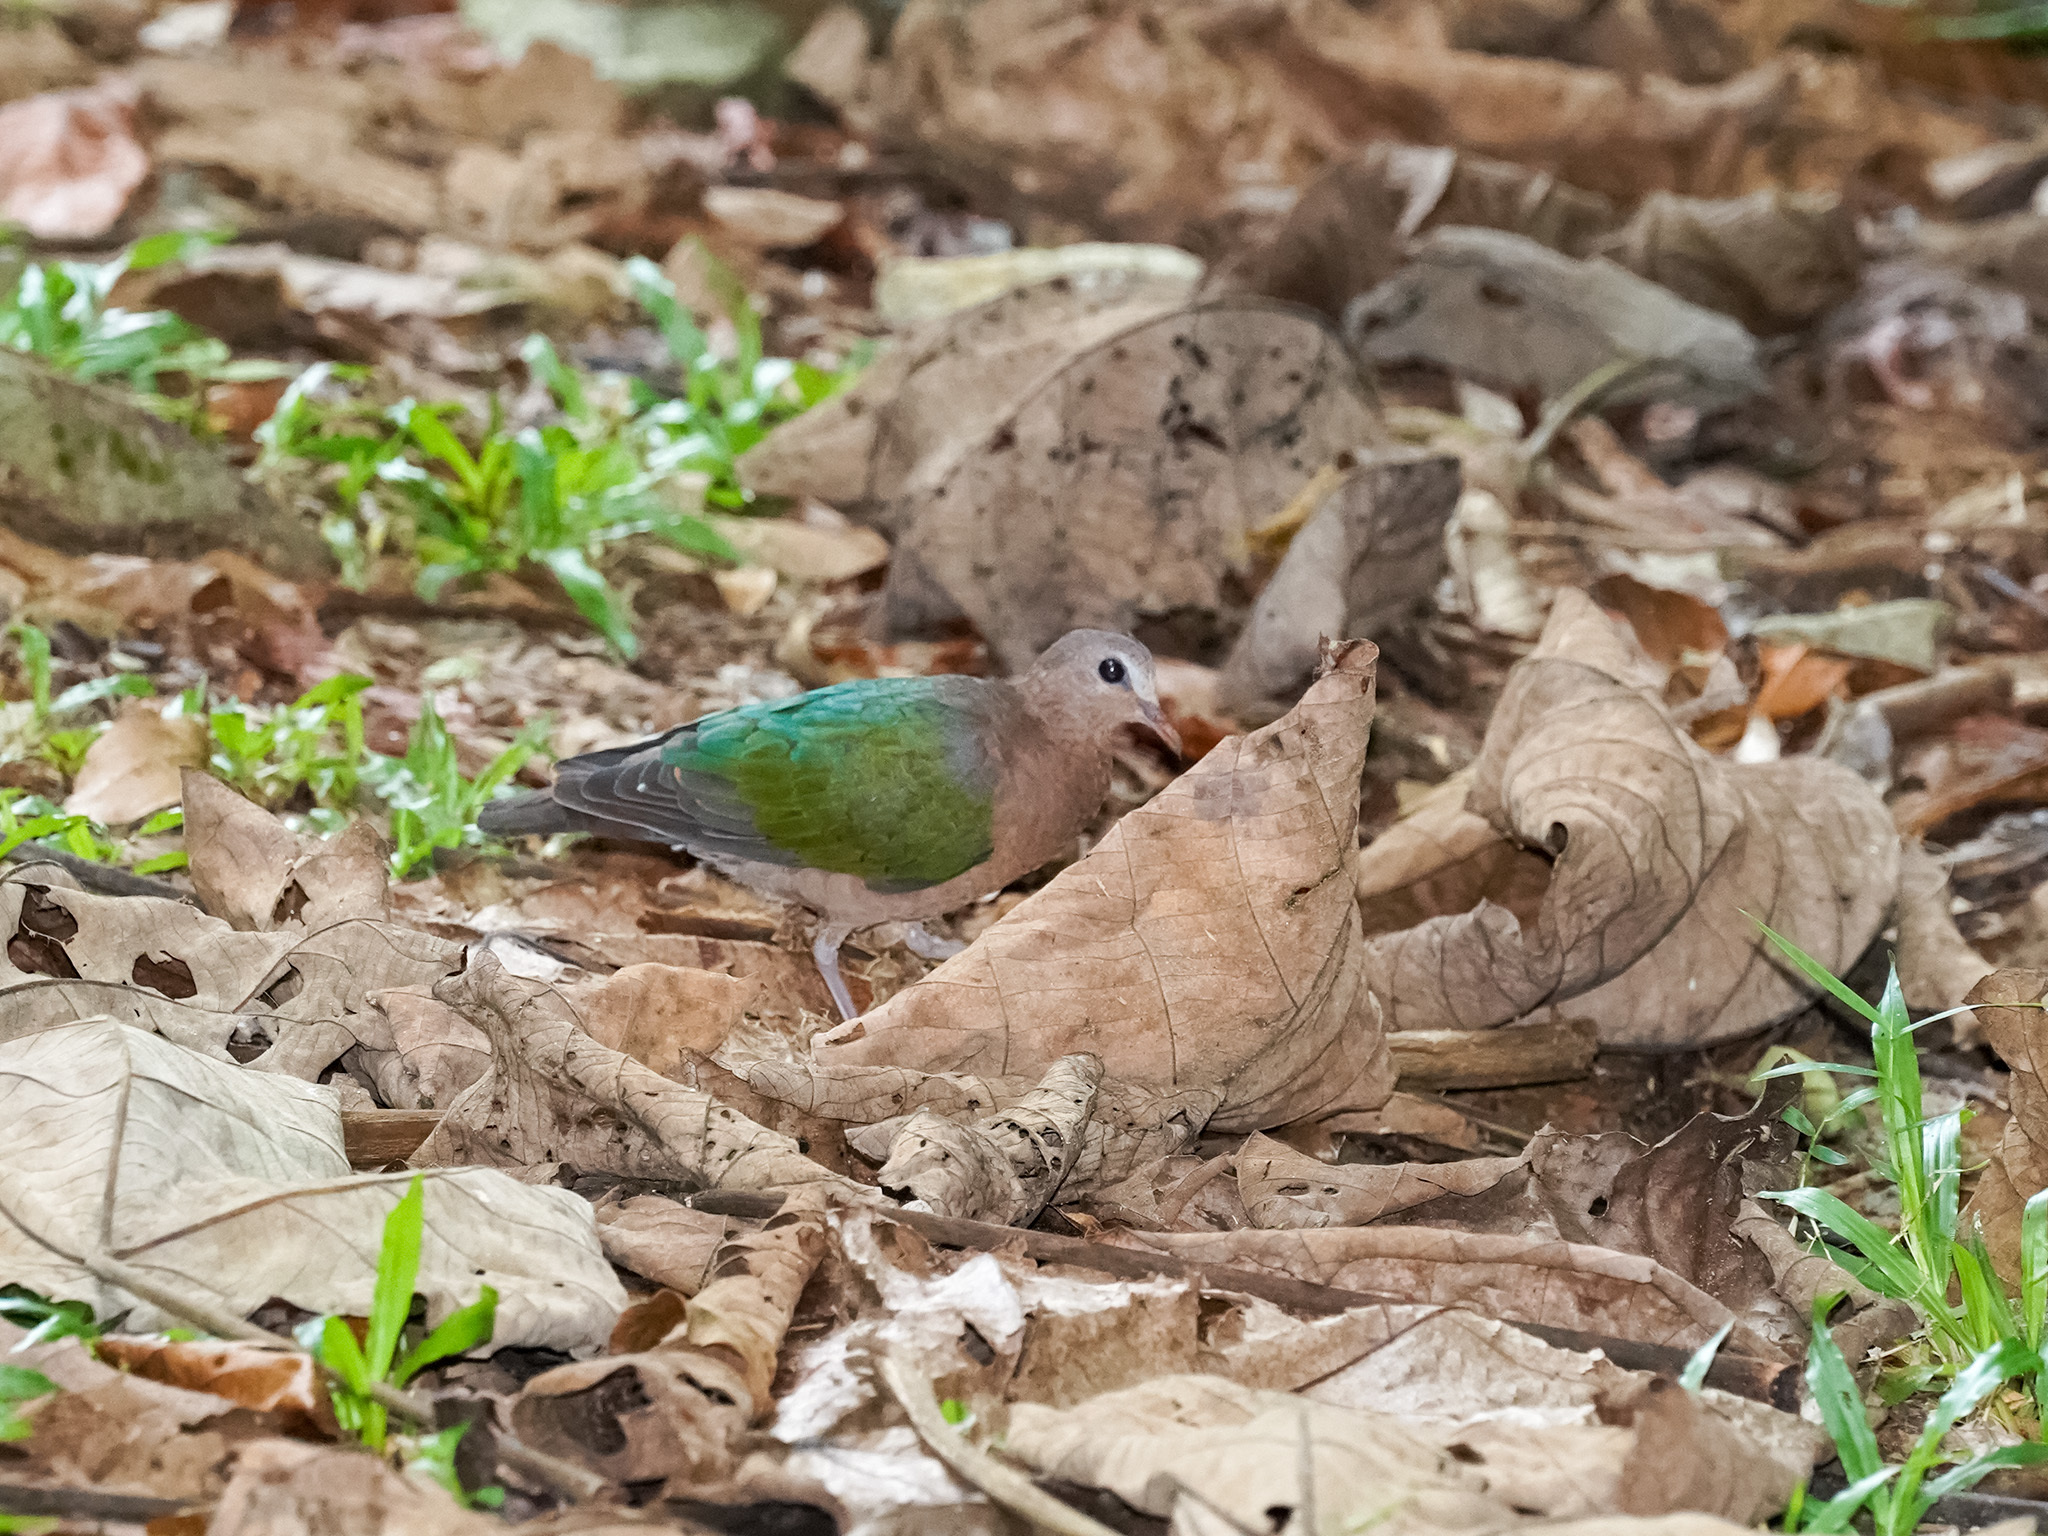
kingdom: Animalia
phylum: Chordata
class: Aves
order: Columbiformes
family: Columbidae
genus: Chalcophaps
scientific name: Chalcophaps indica
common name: Common emerald dove
